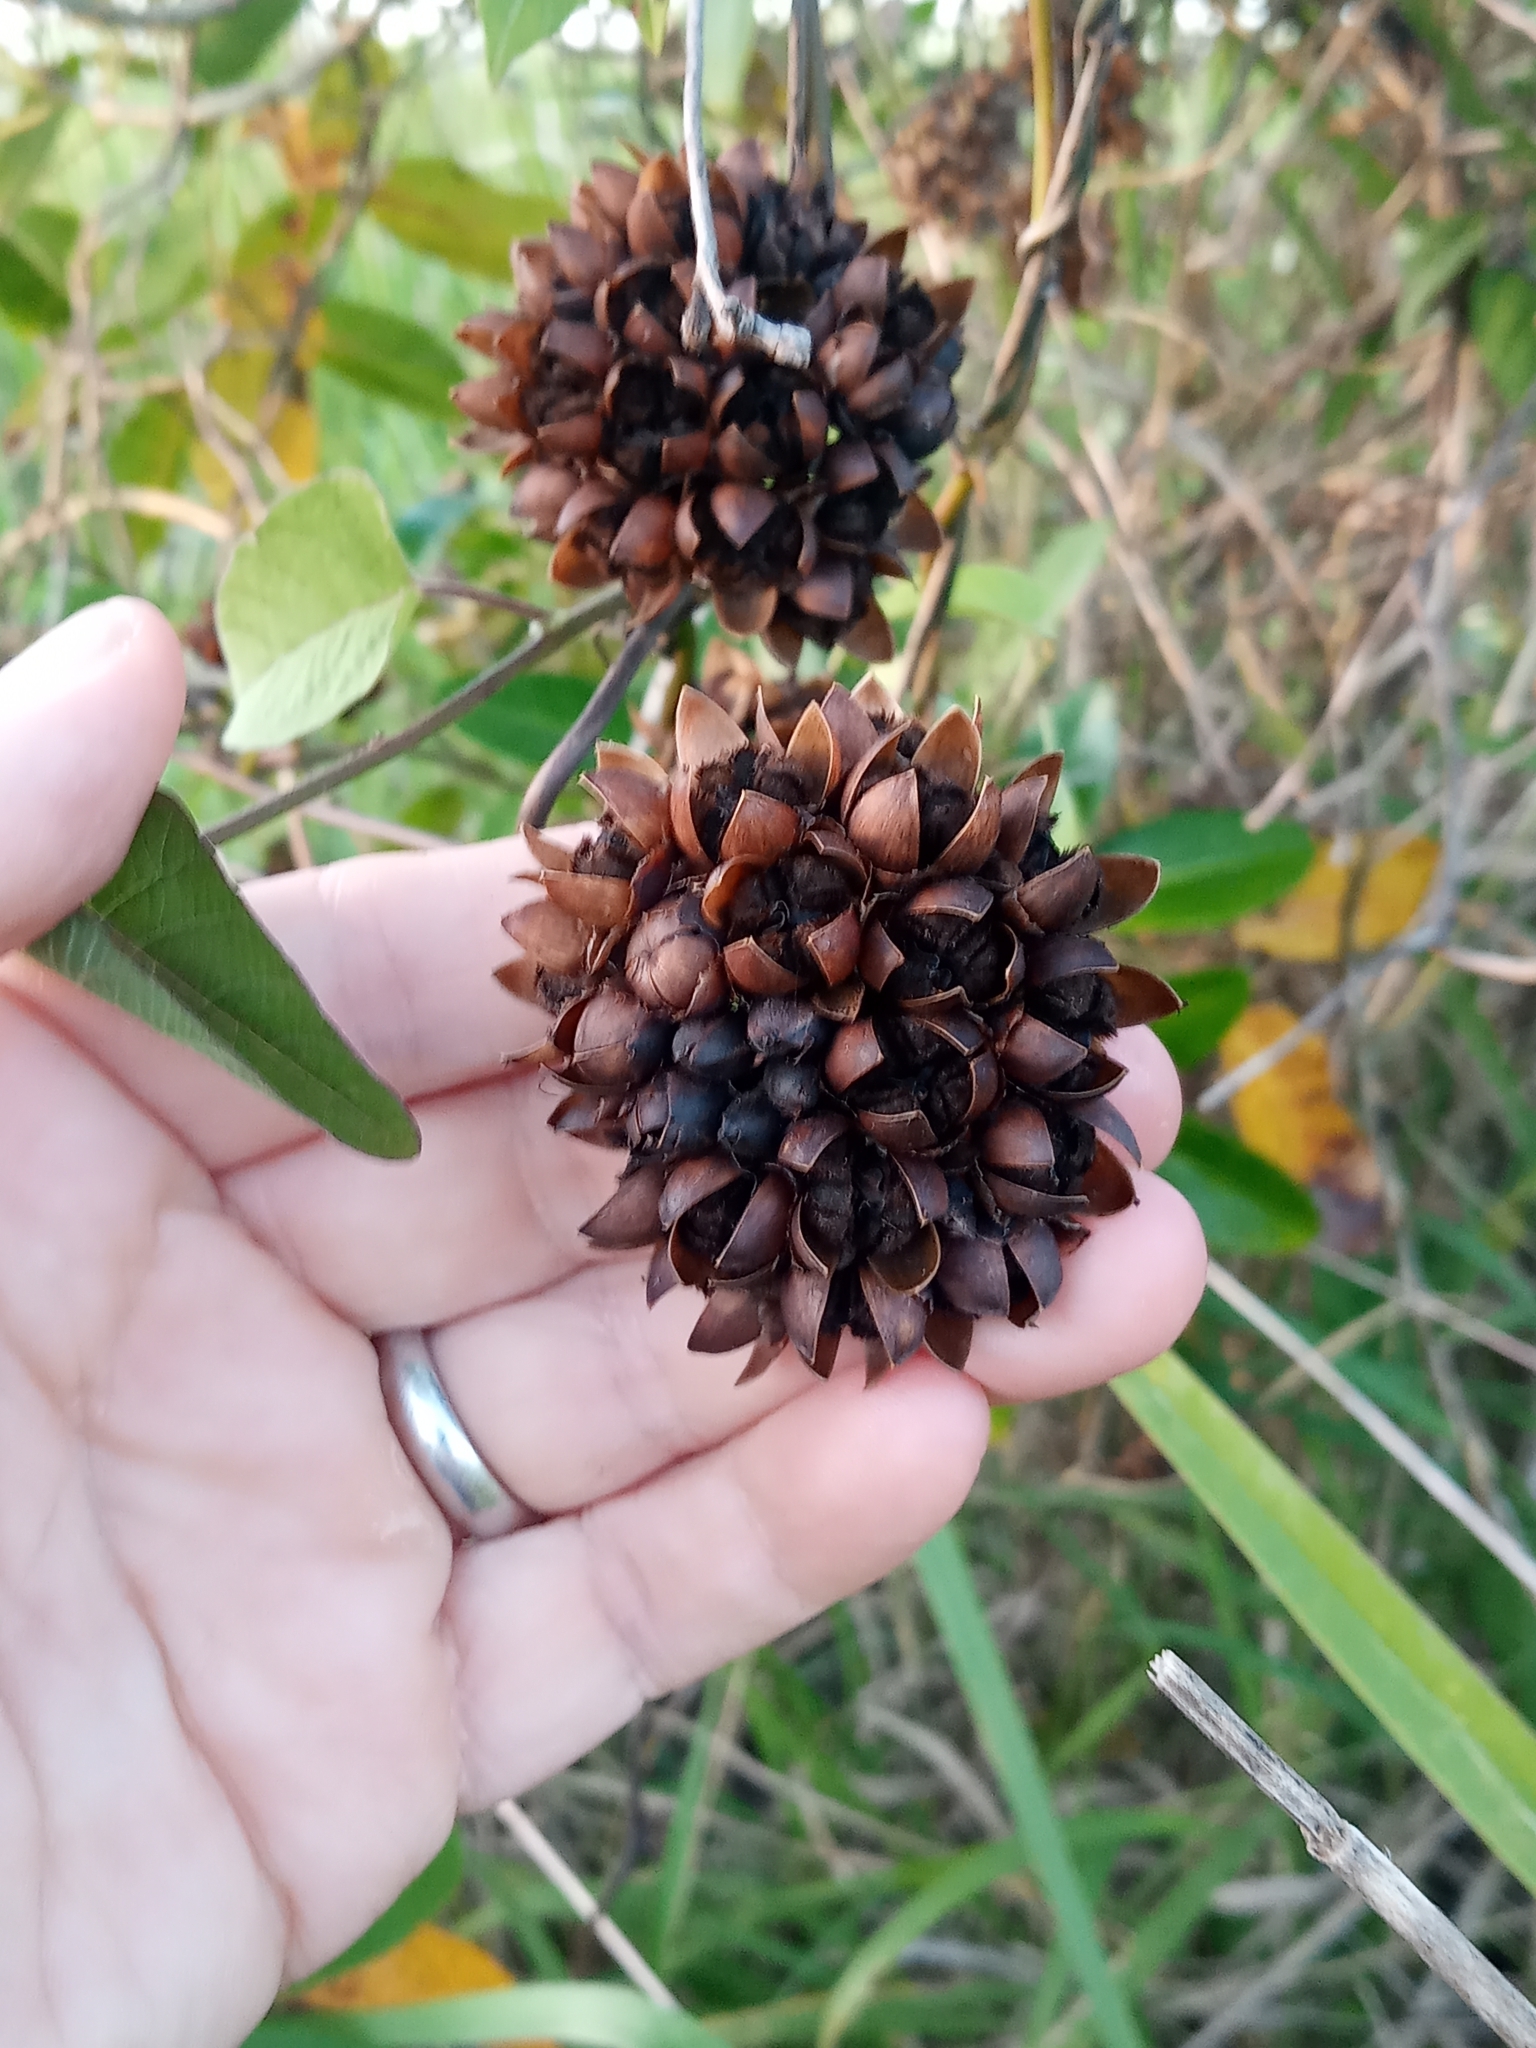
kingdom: Plantae
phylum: Tracheophyta
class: Magnoliopsida
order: Solanales
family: Convolvulaceae
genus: Camonea
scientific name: Camonea umbellata
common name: Hogvine
